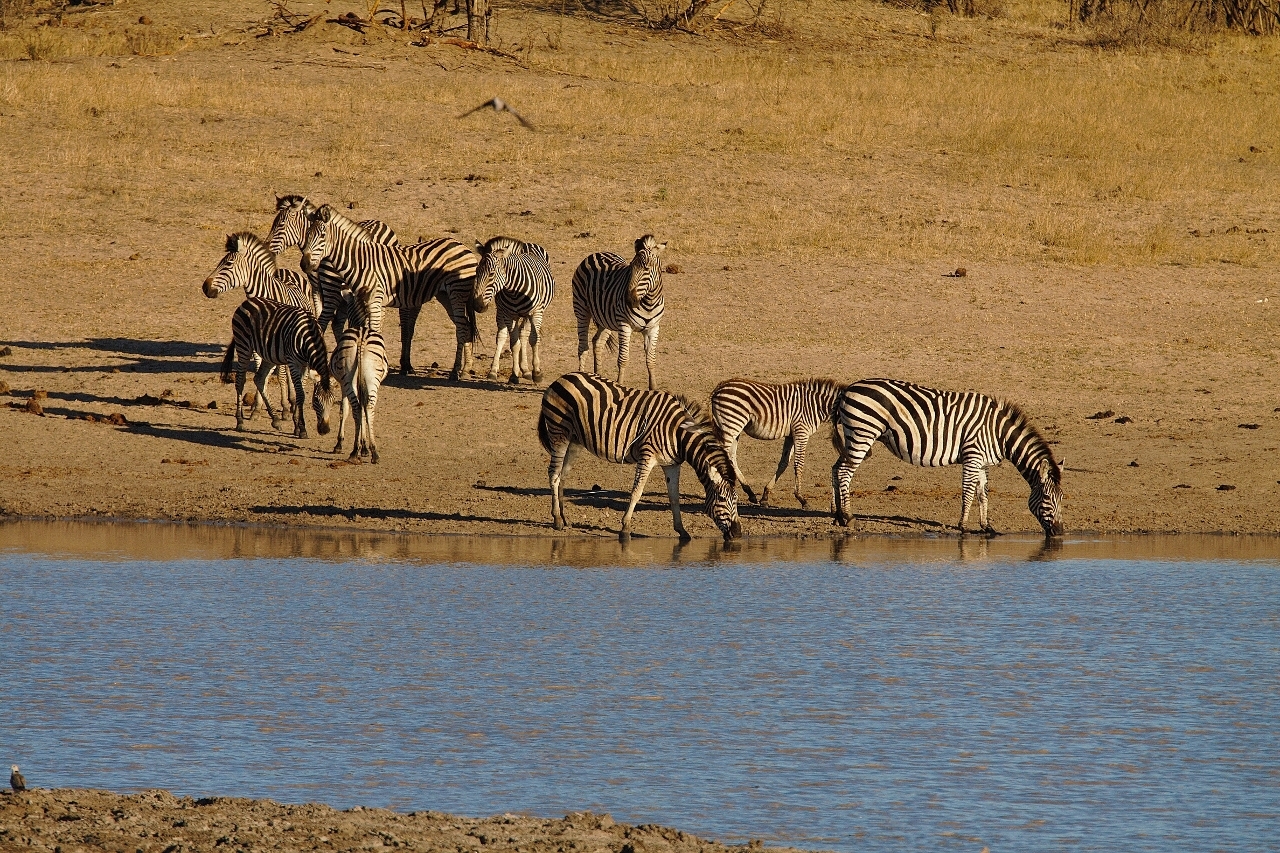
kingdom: Animalia
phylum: Chordata
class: Mammalia
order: Perissodactyla
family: Equidae
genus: Equus
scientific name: Equus quagga
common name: Plains zebra
